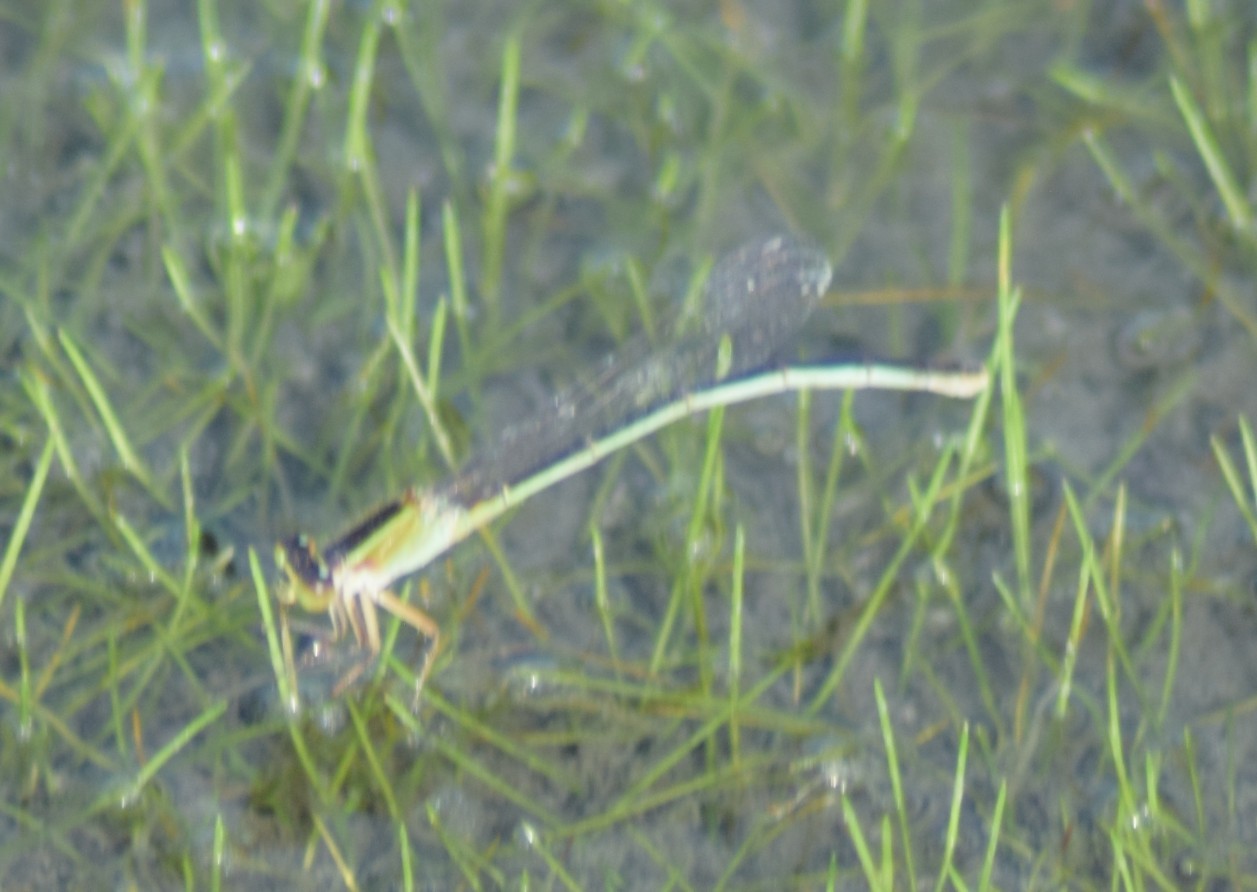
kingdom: Animalia
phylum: Arthropoda
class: Insecta
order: Odonata
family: Coenagrionidae
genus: Ischnura
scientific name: Ischnura ramburii
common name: Rambur's forktail
